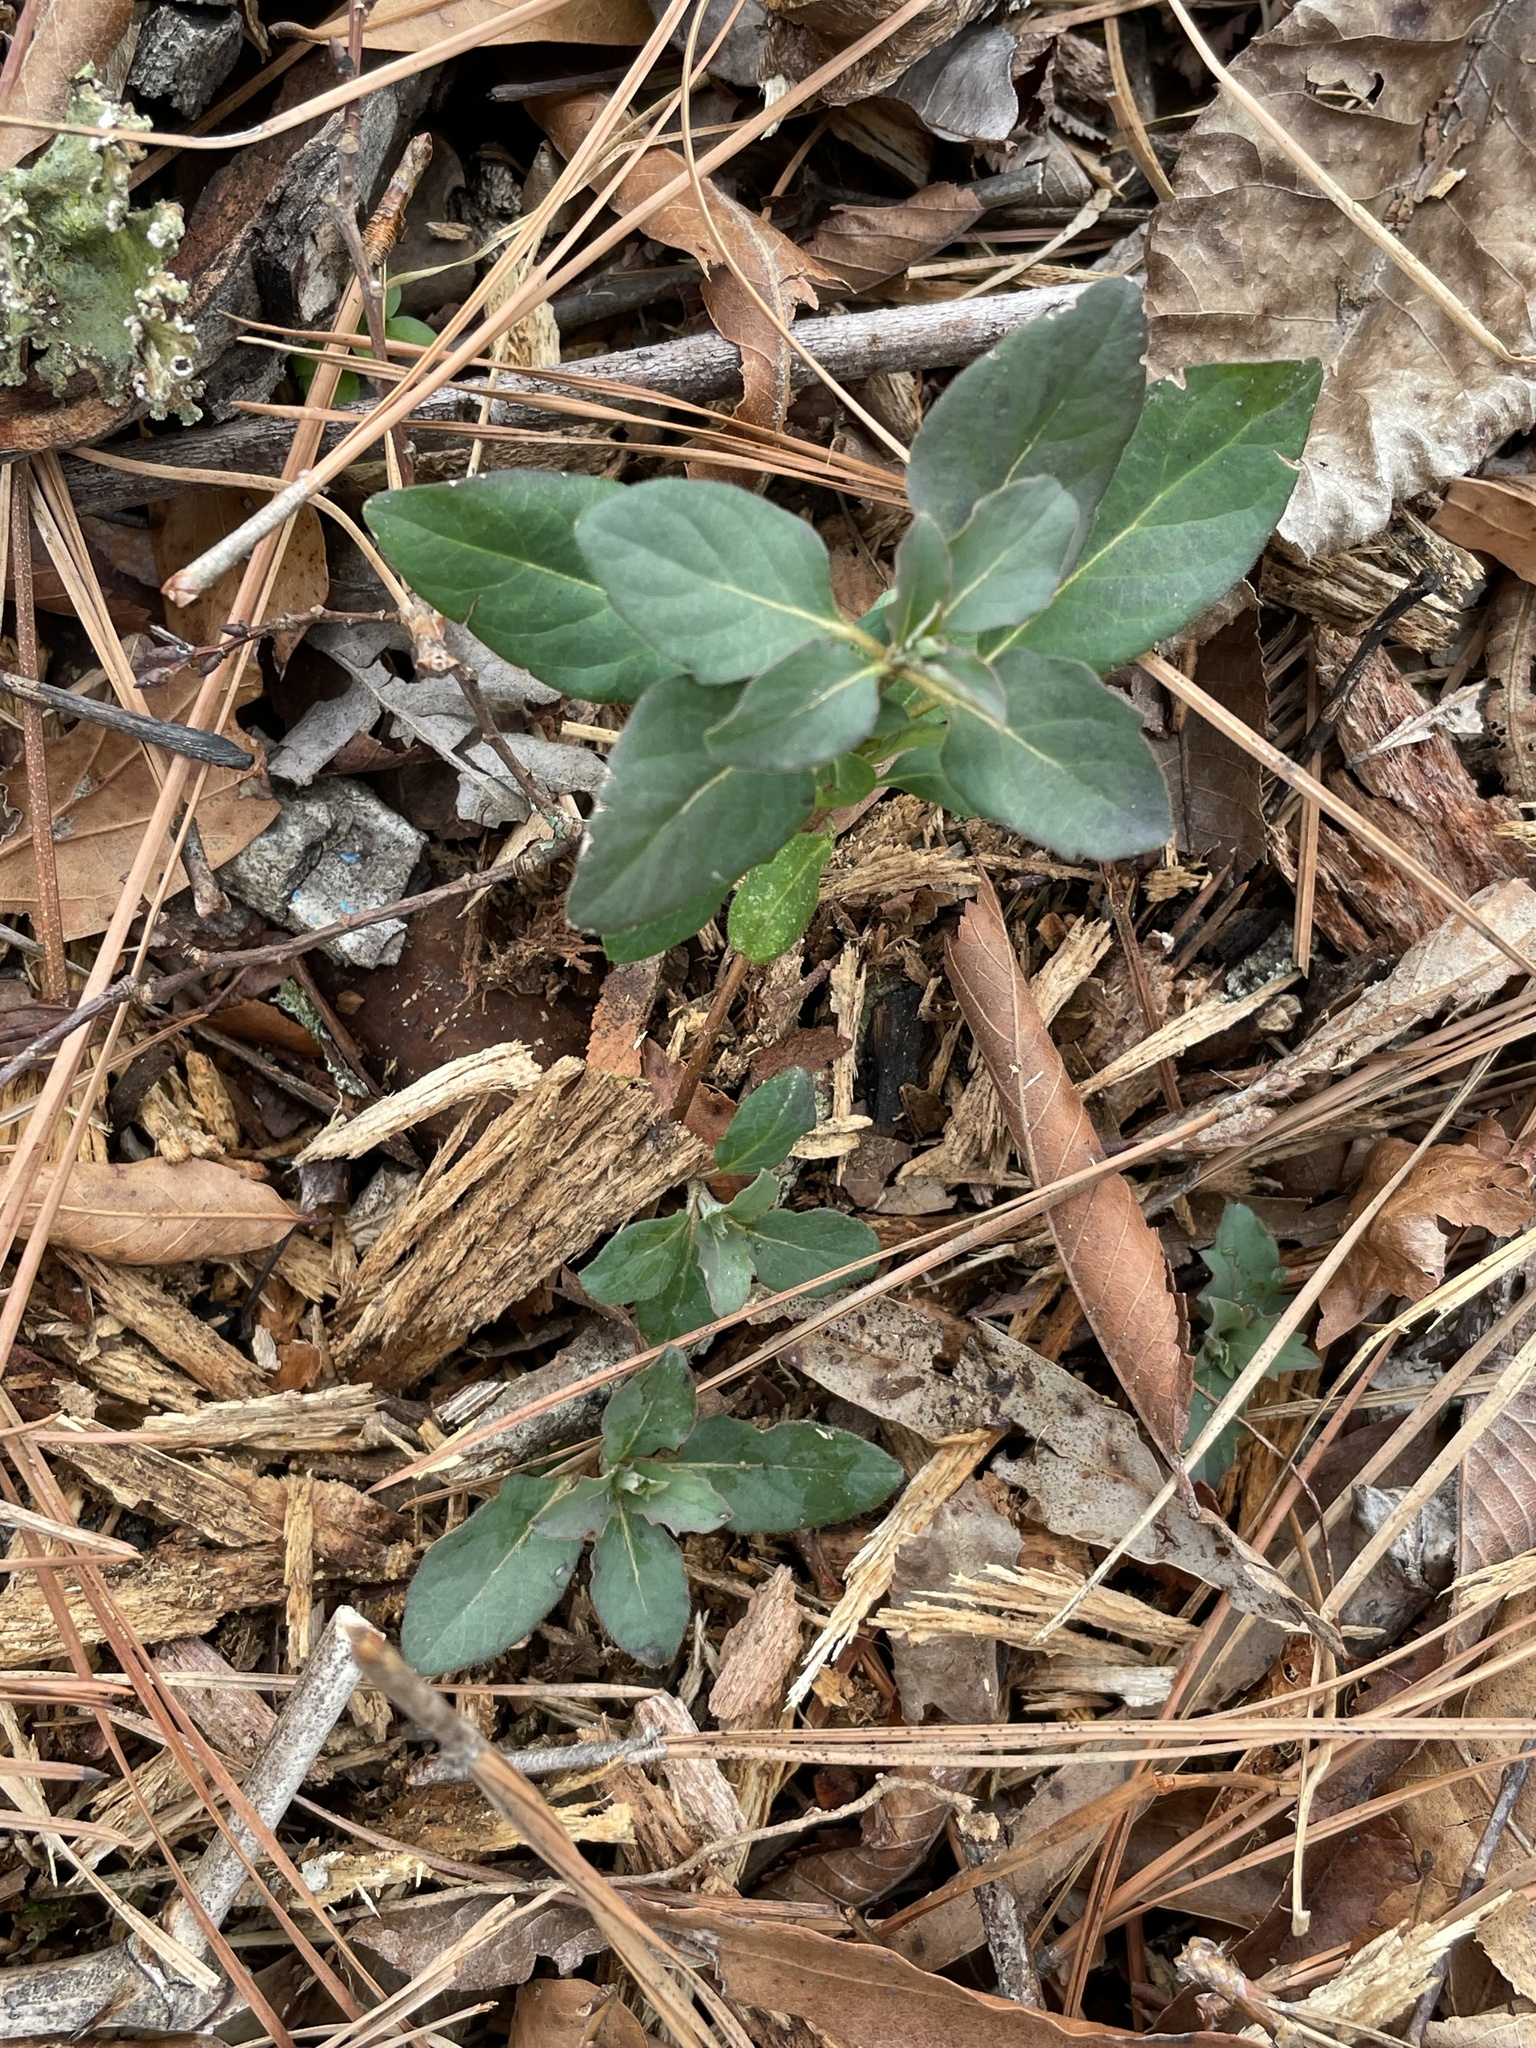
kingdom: Plantae
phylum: Tracheophyta
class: Magnoliopsida
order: Dipsacales
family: Caprifoliaceae
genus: Lonicera
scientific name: Lonicera japonica
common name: Japanese honeysuckle
